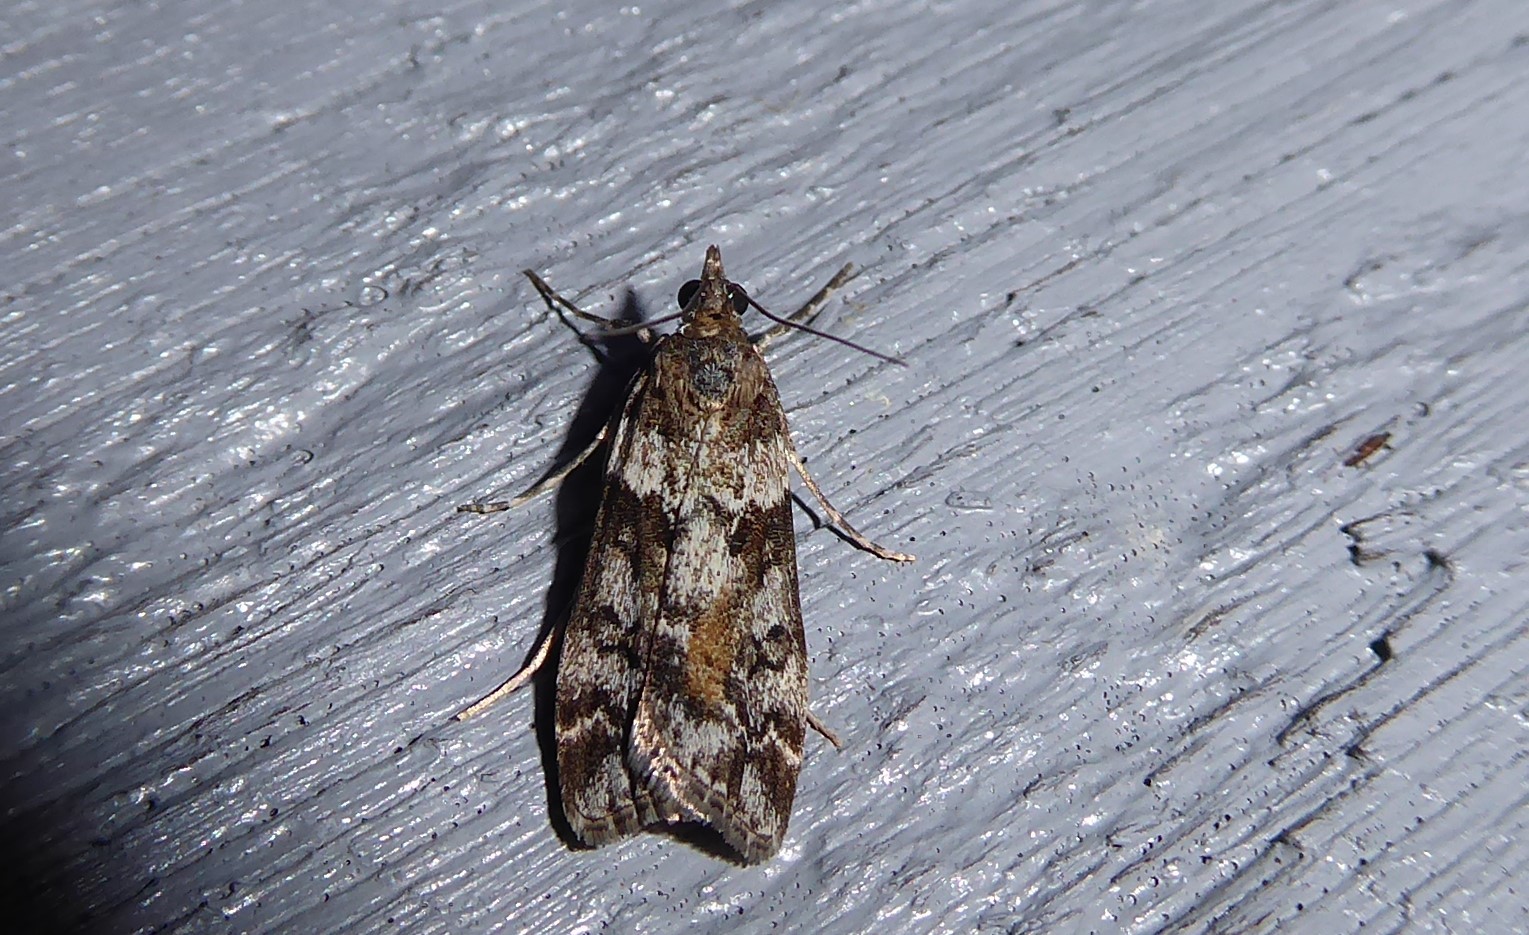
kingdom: Animalia
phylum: Arthropoda
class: Insecta
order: Lepidoptera
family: Crambidae
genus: Eudonia
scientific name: Eudonia submarginalis
